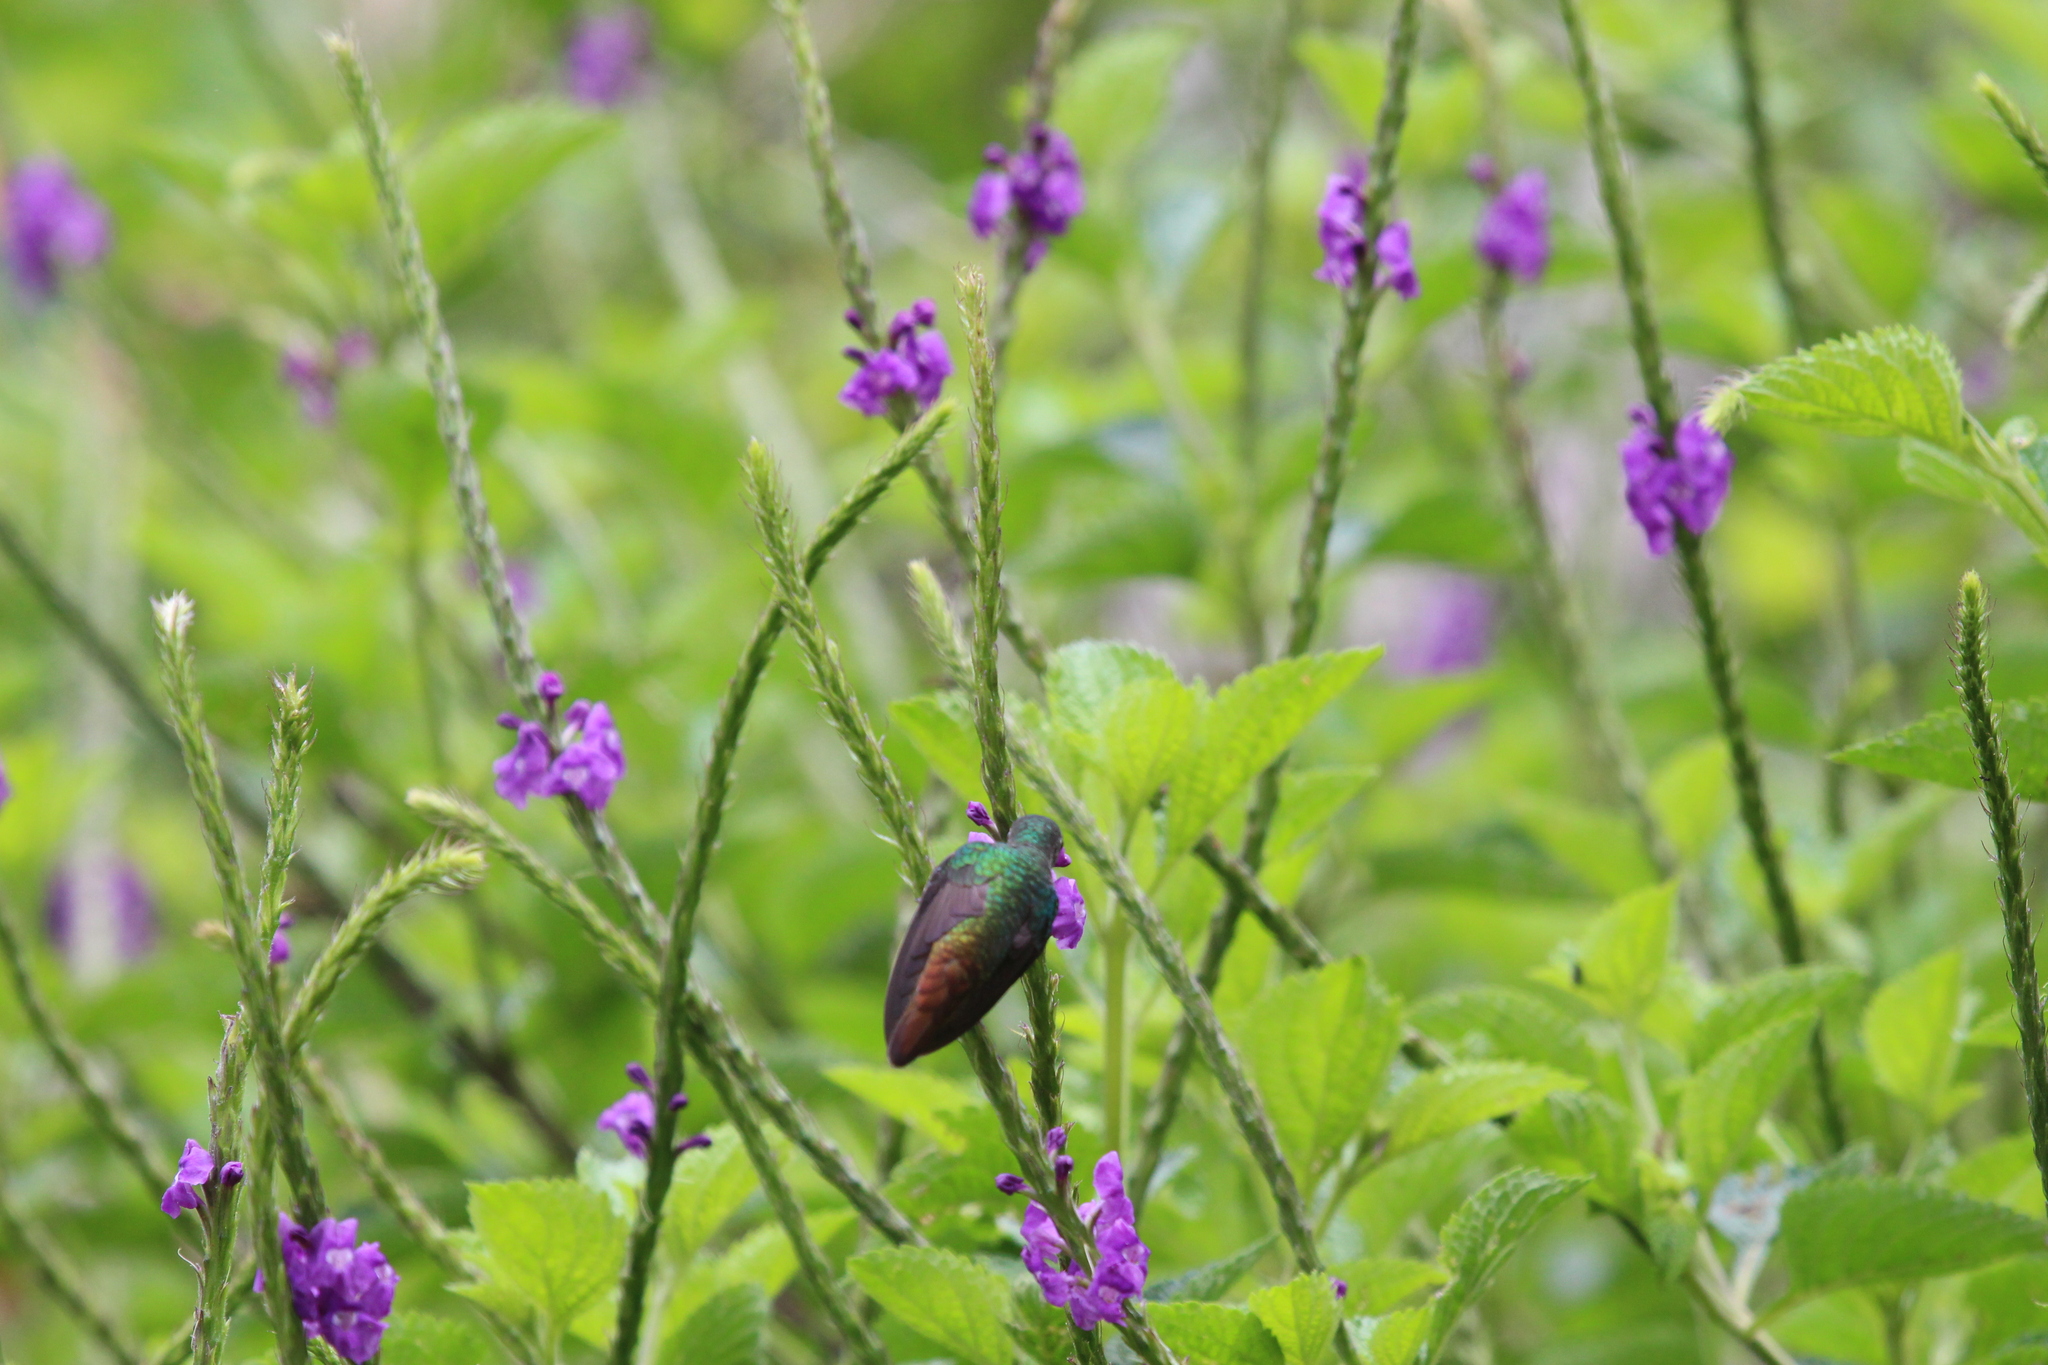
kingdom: Animalia
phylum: Chordata
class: Aves
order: Apodiformes
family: Trochilidae
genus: Chrysuronia
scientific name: Chrysuronia oenone
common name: Golden-tailed sapphire
